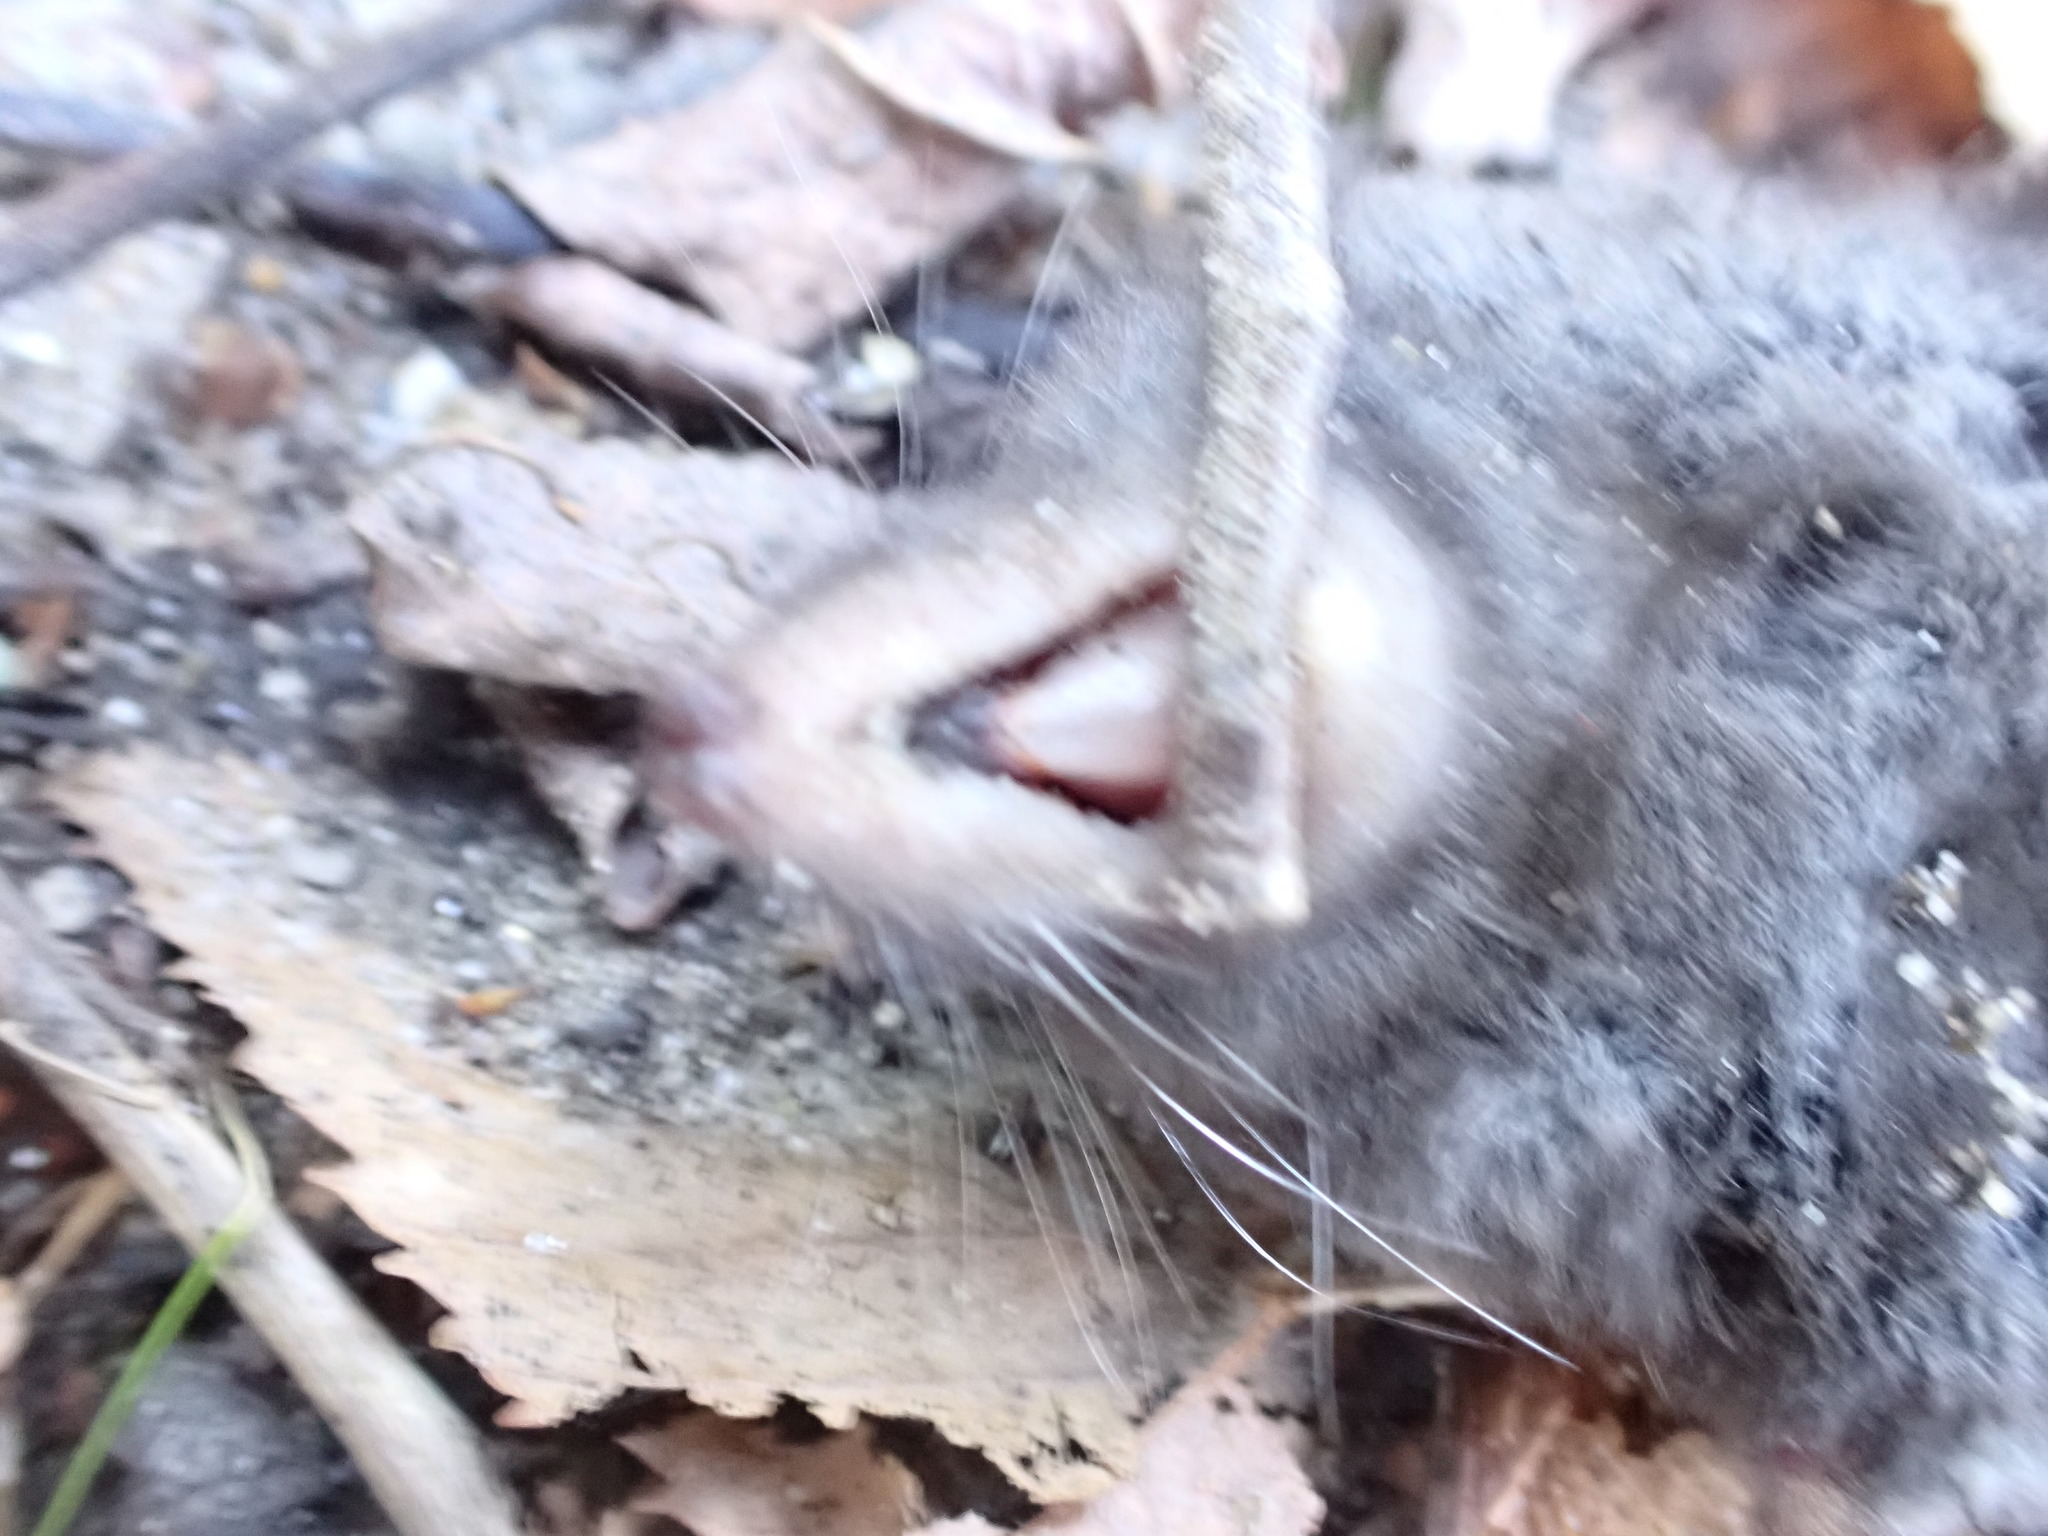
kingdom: Animalia
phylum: Chordata
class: Mammalia
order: Soricomorpha
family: Soricidae
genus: Blarina
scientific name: Blarina brevicauda
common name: Northern short-tailed shrew
